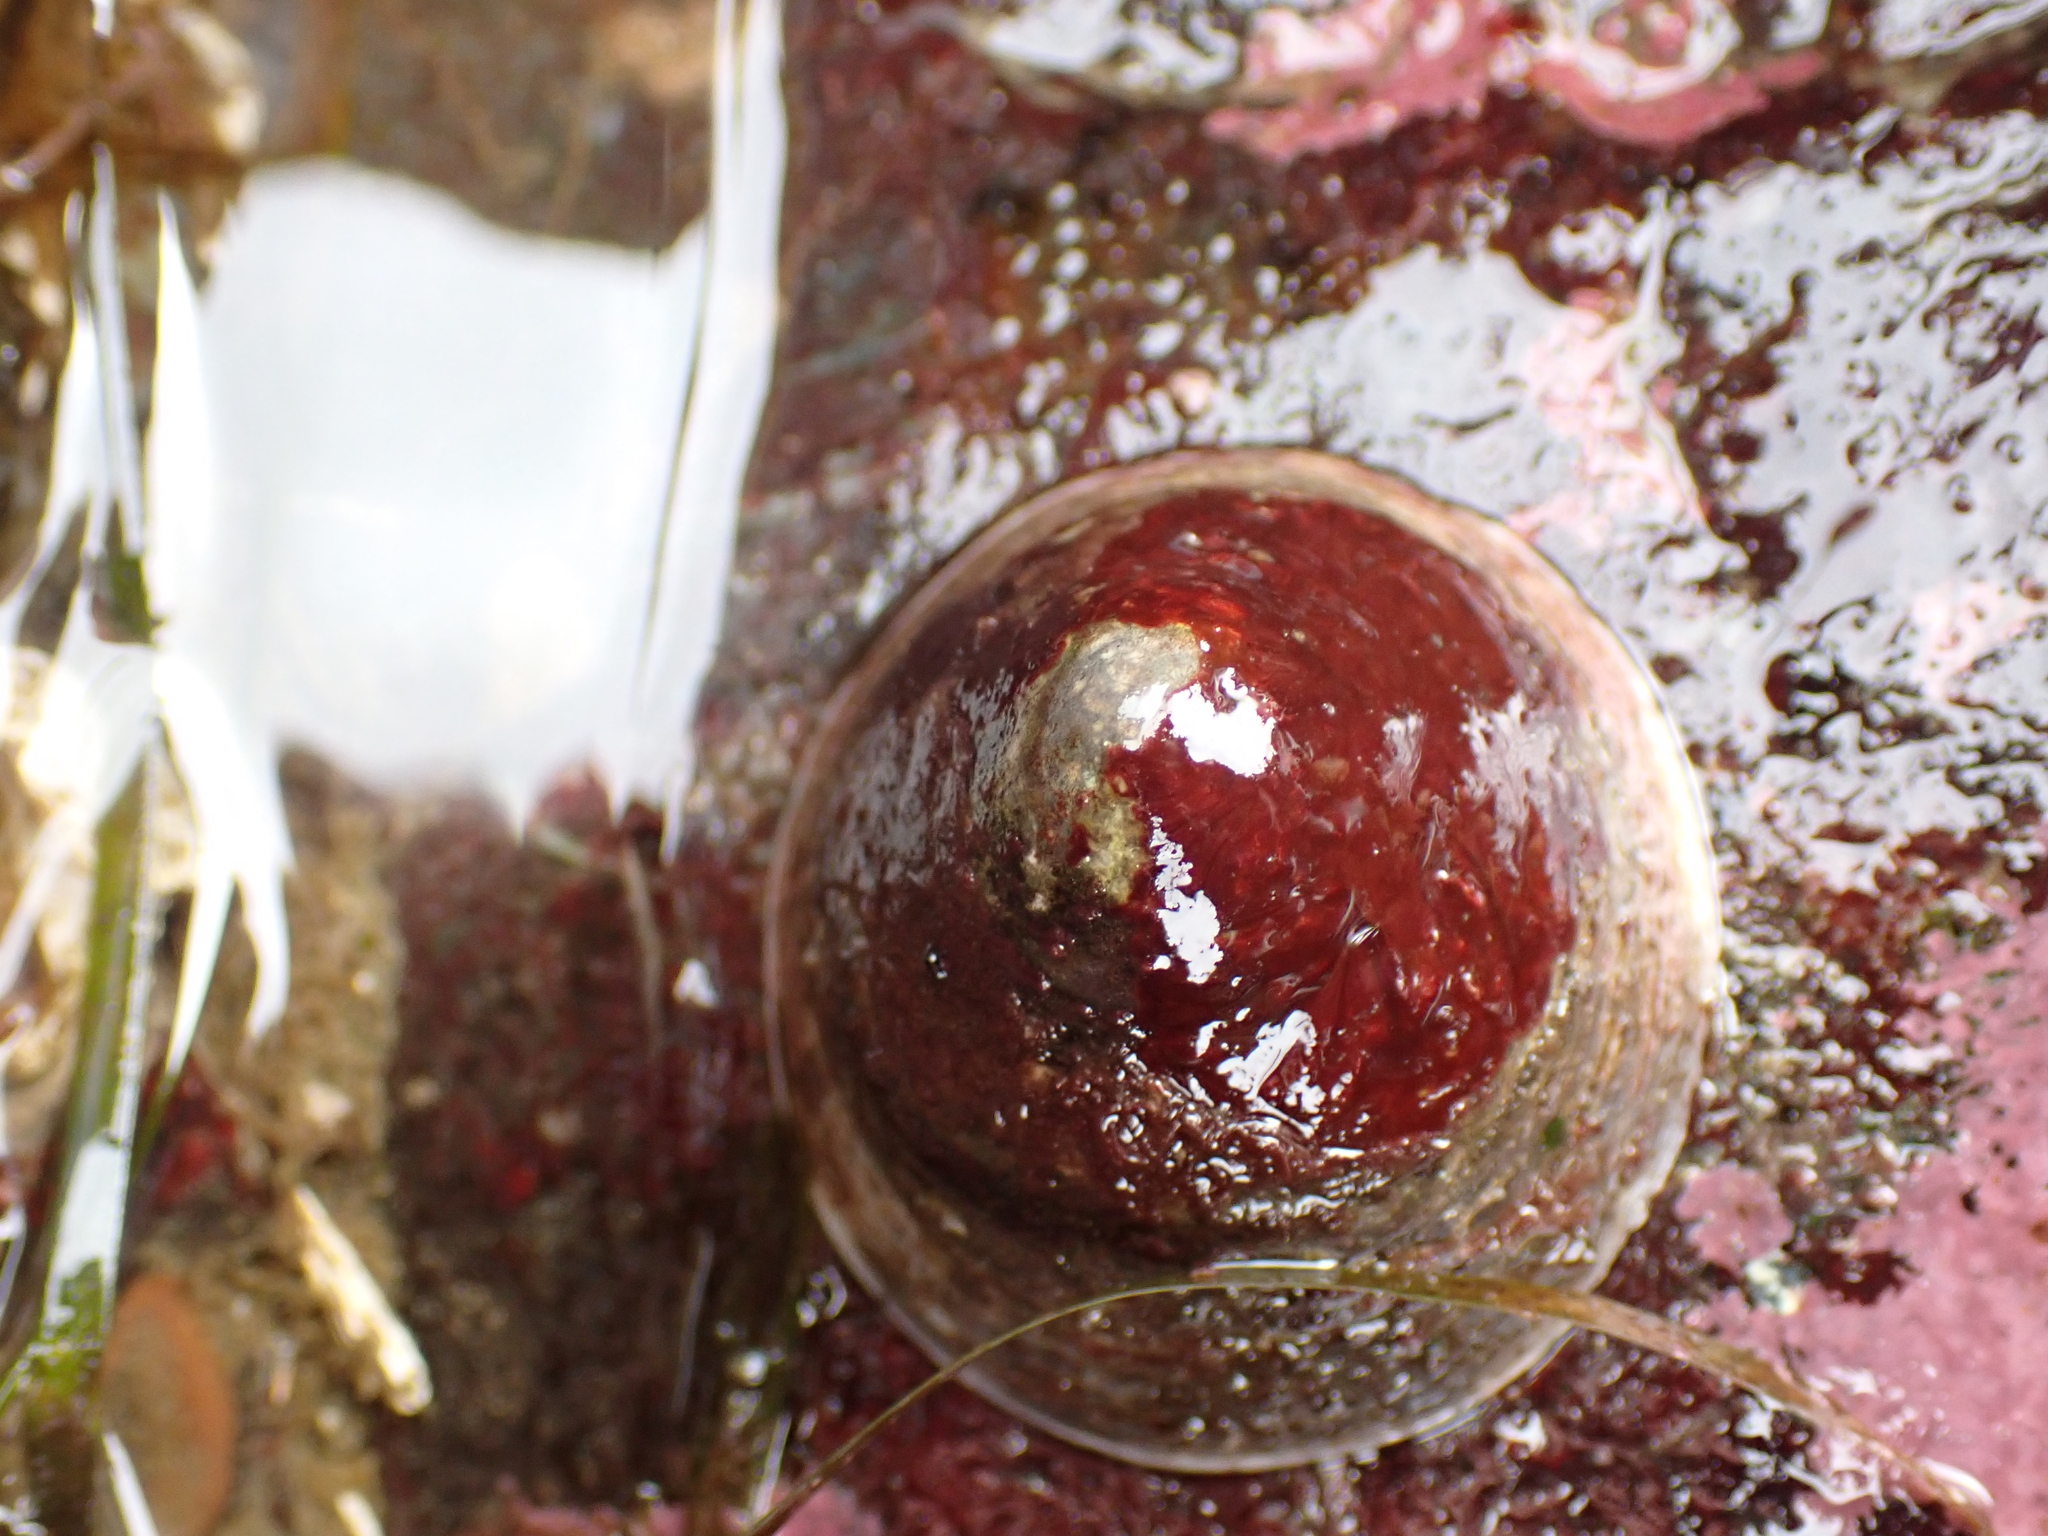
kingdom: Animalia
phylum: Mollusca
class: Gastropoda
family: Acmaeidae
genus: Acmaea
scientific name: Acmaea mitra
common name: Pacific white cap limpet
